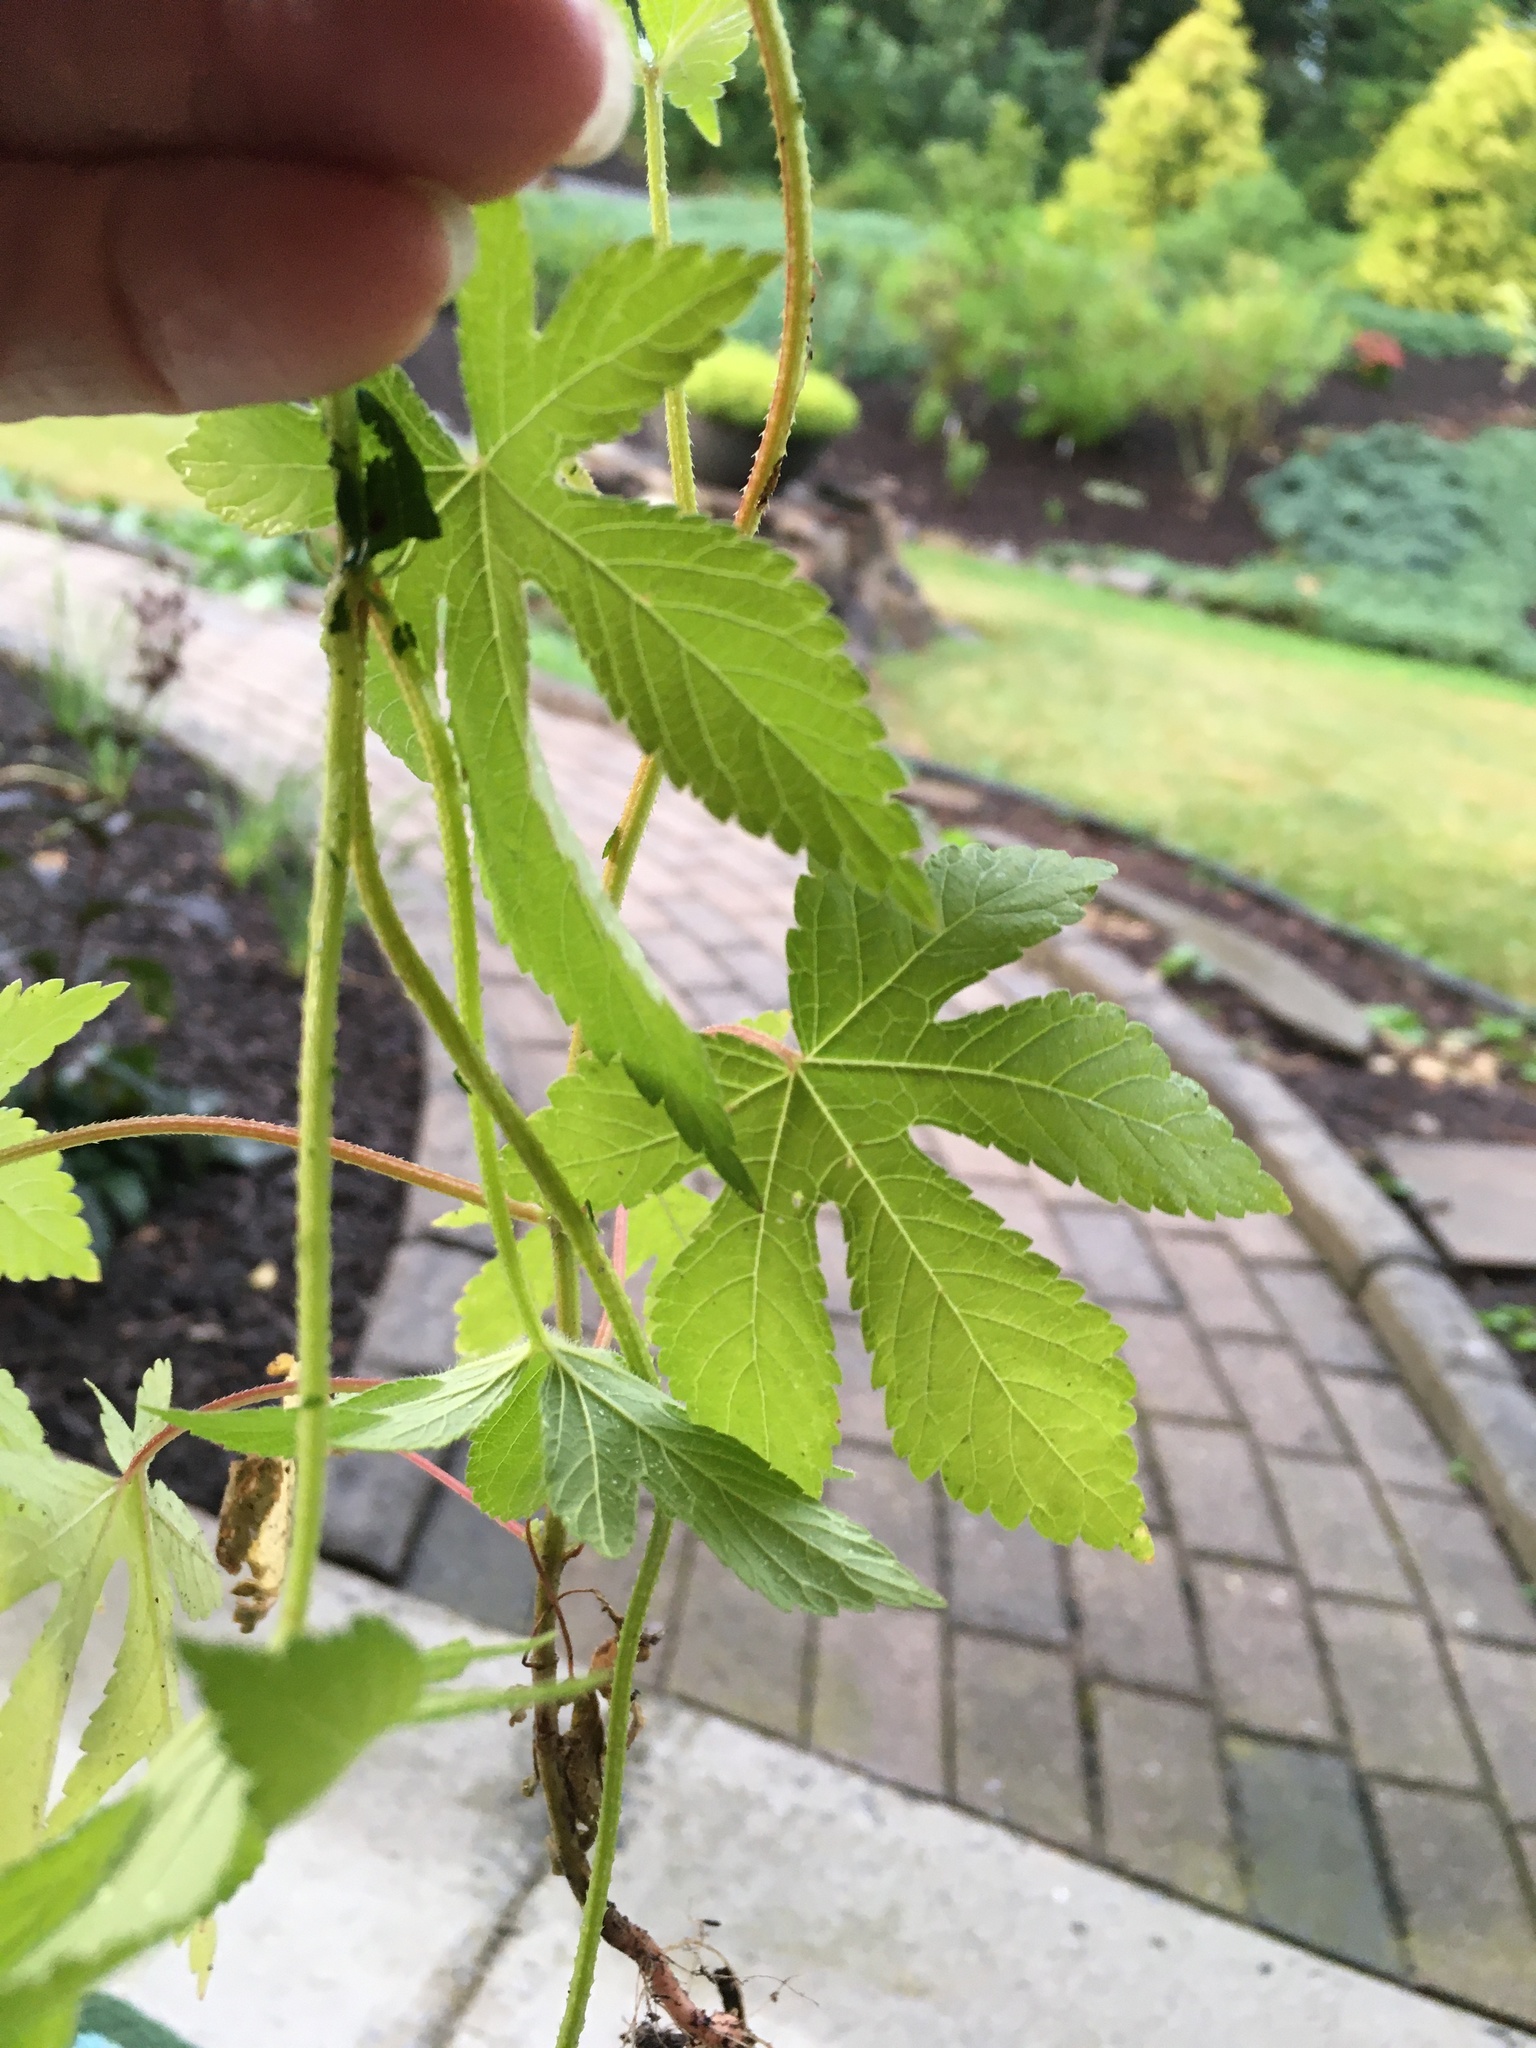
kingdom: Plantae
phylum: Tracheophyta
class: Magnoliopsida
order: Rosales
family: Cannabaceae
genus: Humulus
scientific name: Humulus scandens
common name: Japanese hop
